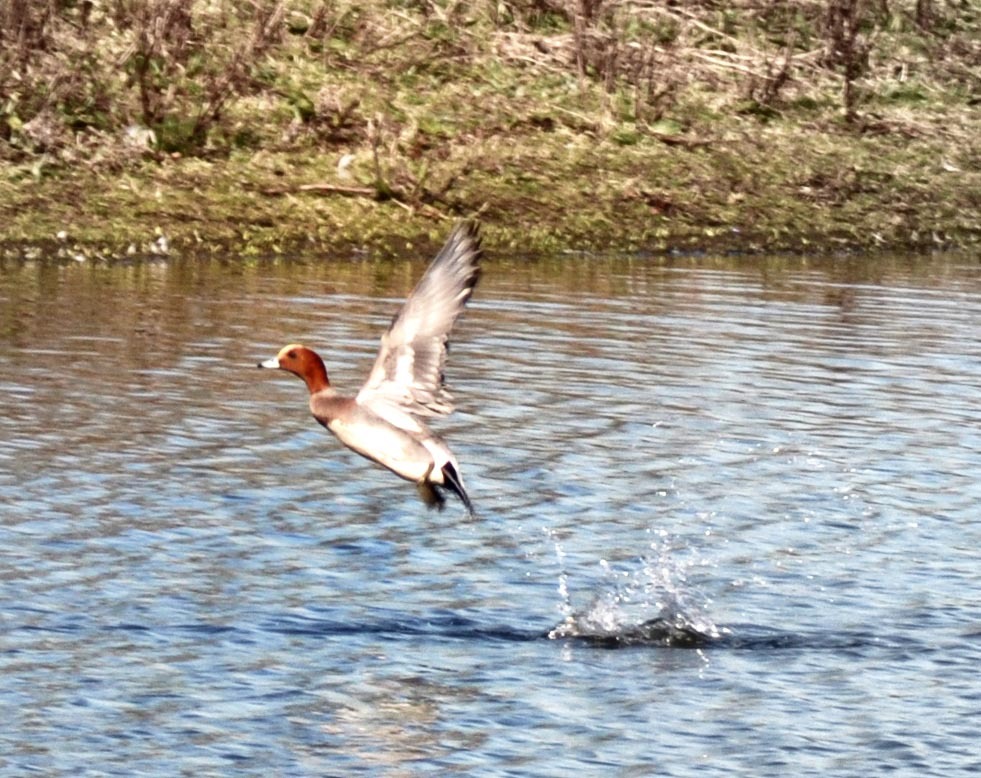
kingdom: Animalia
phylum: Chordata
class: Aves
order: Anseriformes
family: Anatidae
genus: Mareca
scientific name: Mareca penelope
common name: Eurasian wigeon
